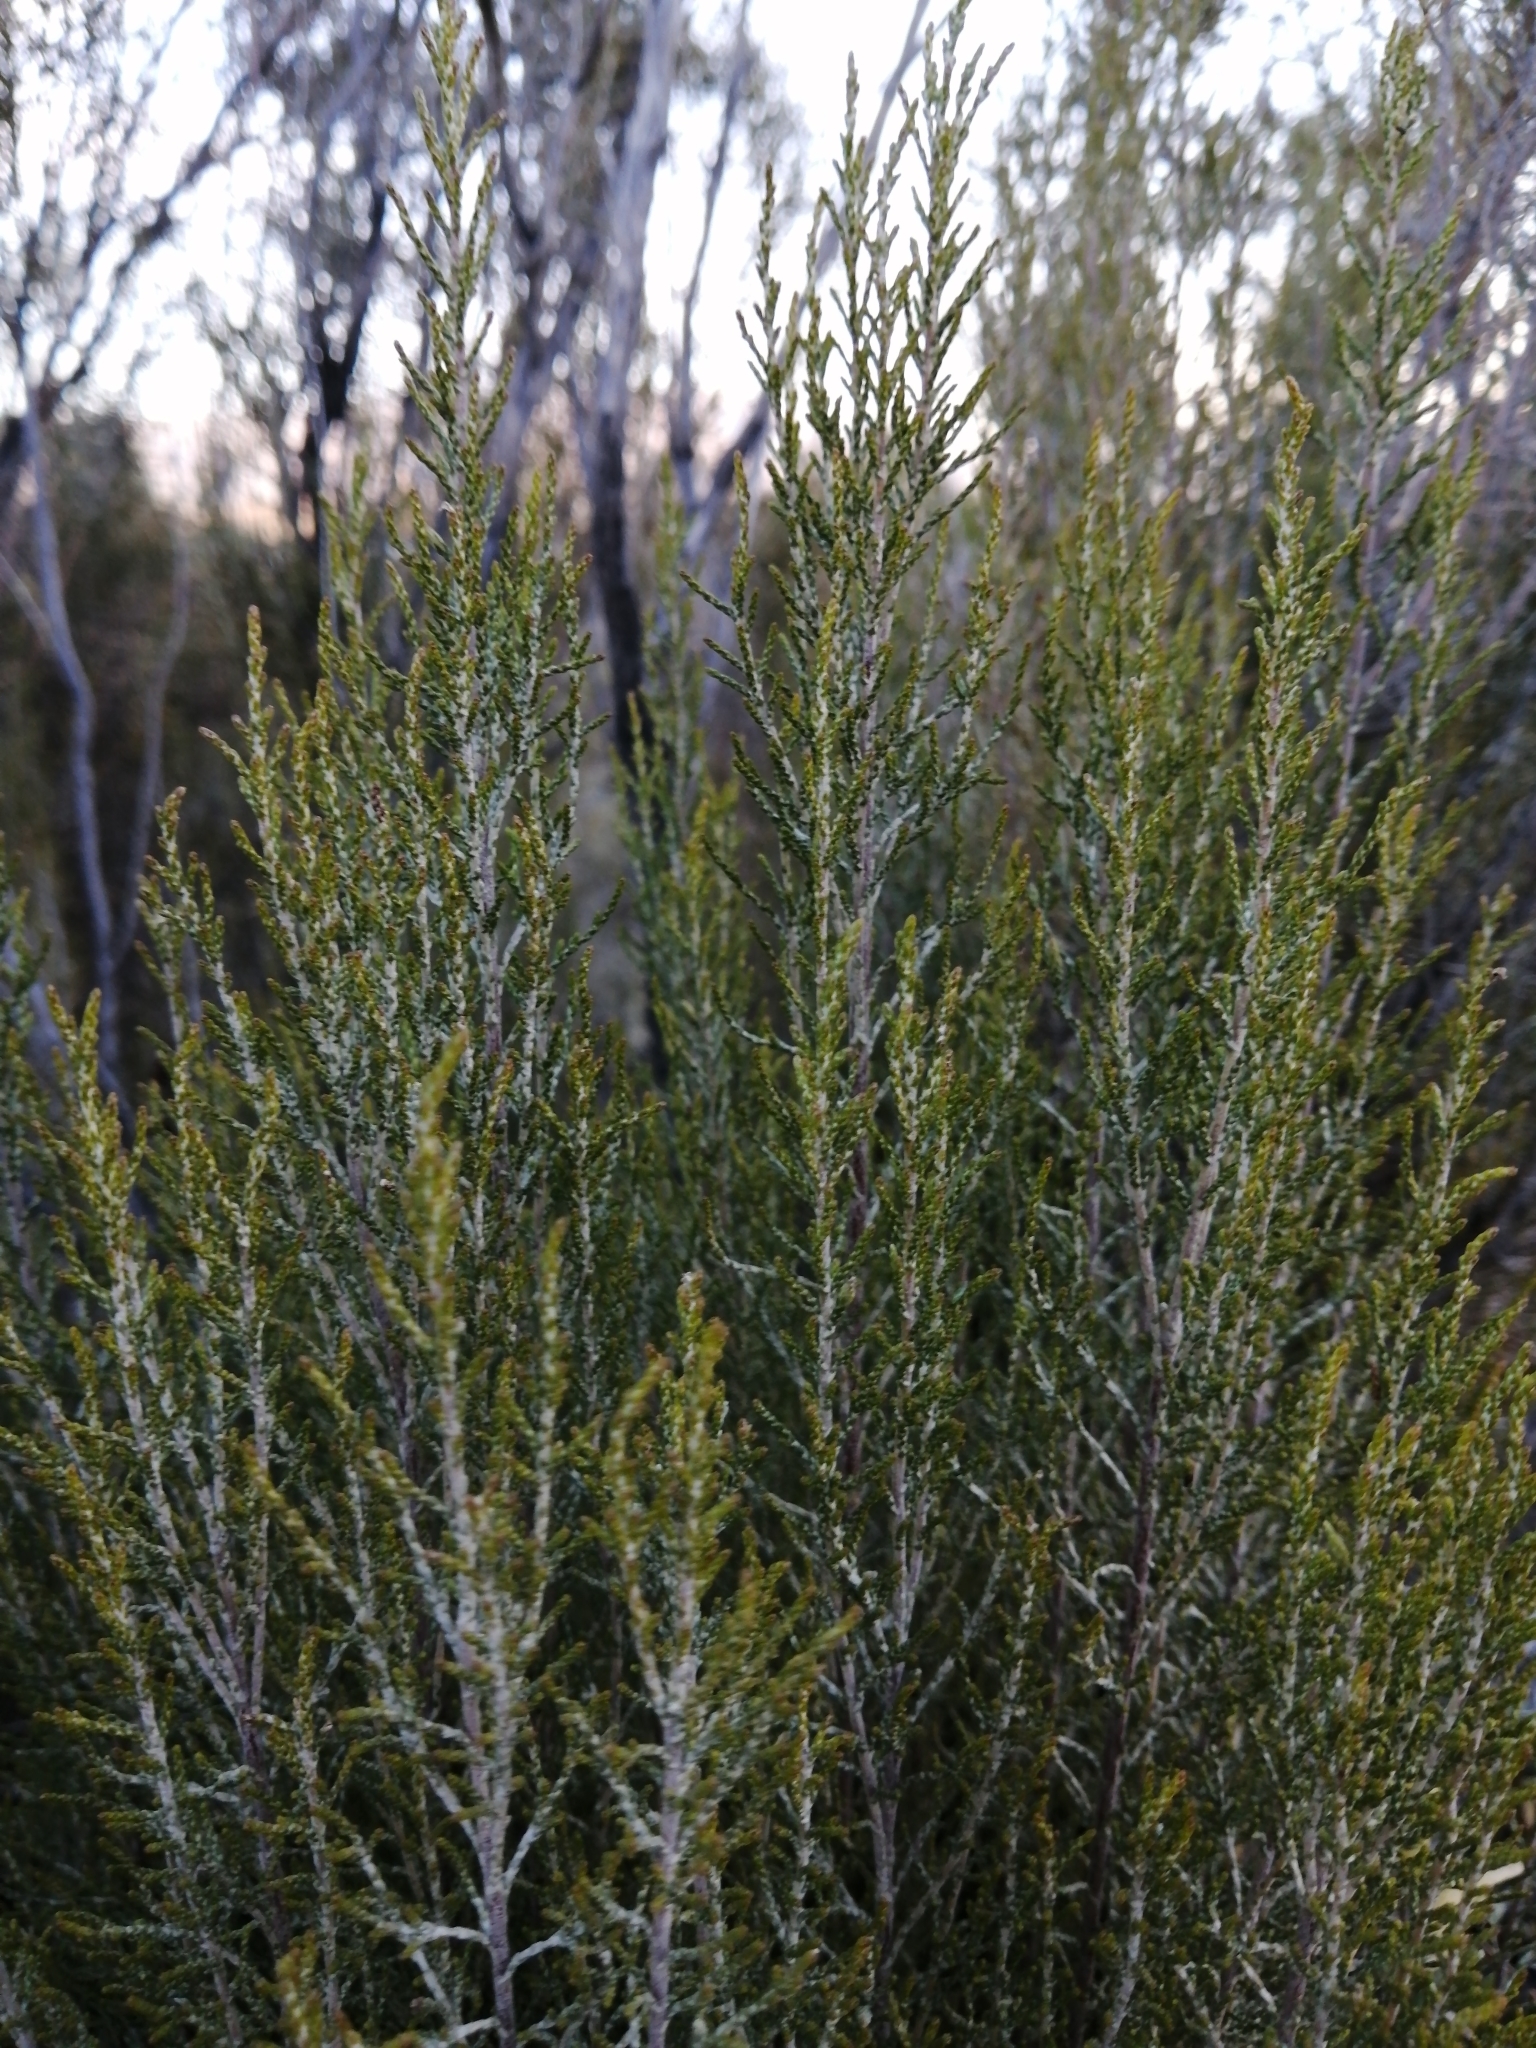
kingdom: Plantae
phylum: Tracheophyta
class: Magnoliopsida
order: Asterales
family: Asteraceae
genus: Dicerothamnus
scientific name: Dicerothamnus rhinocerotis
